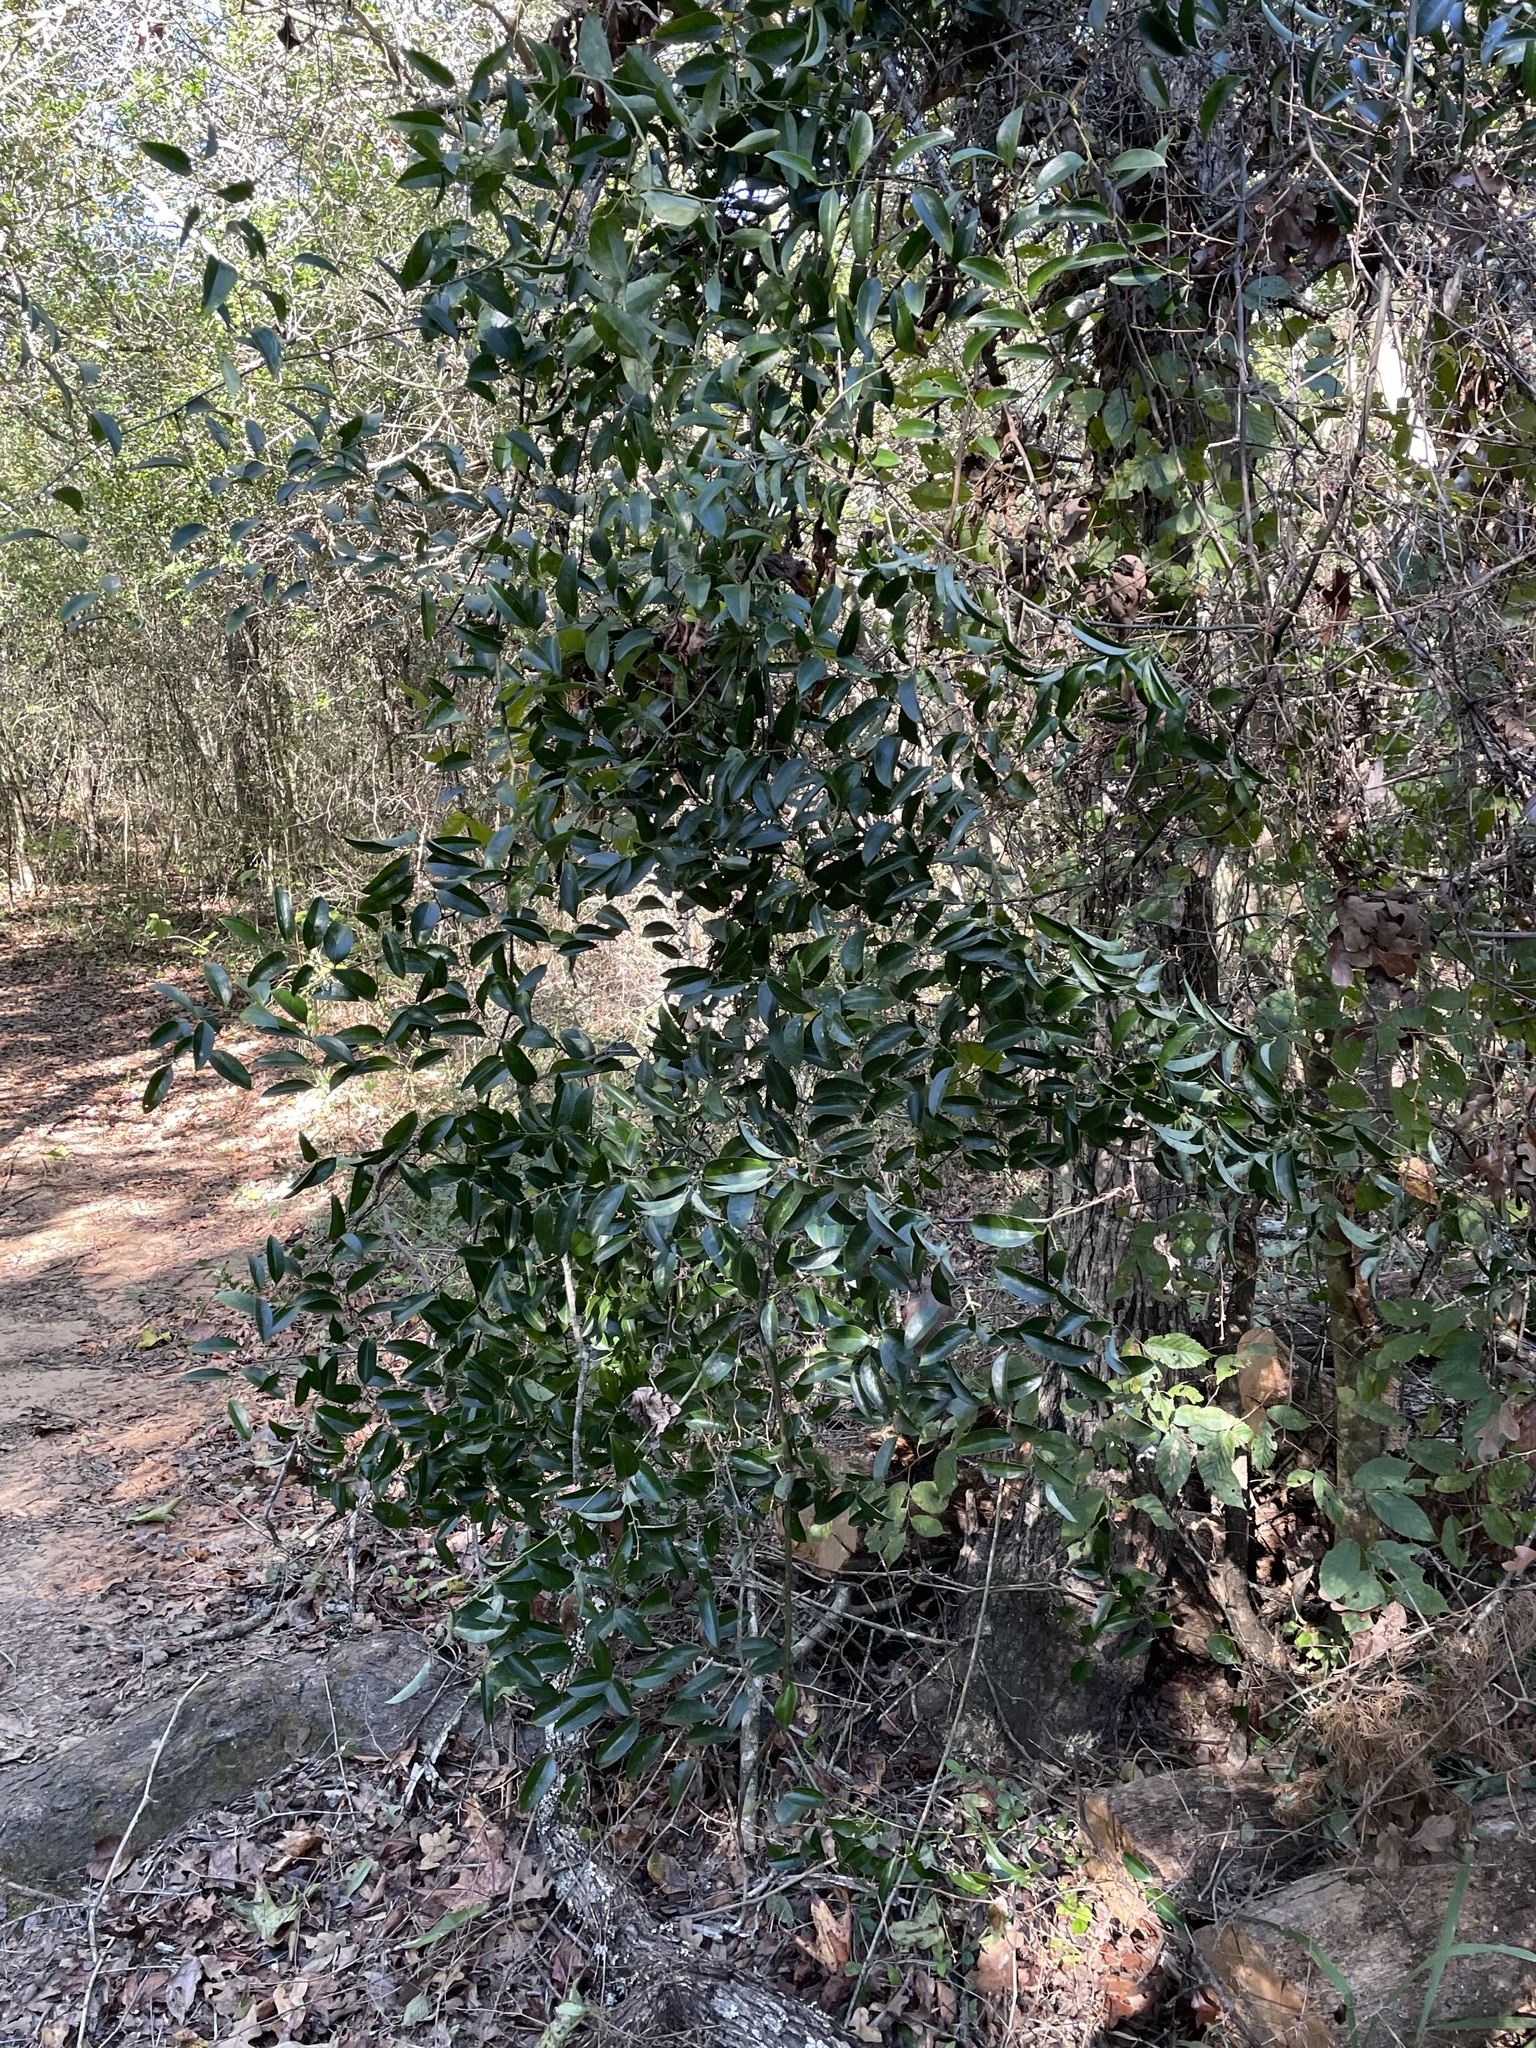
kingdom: Plantae
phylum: Tracheophyta
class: Liliopsida
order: Liliales
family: Smilacaceae
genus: Smilax
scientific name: Smilax maritima
